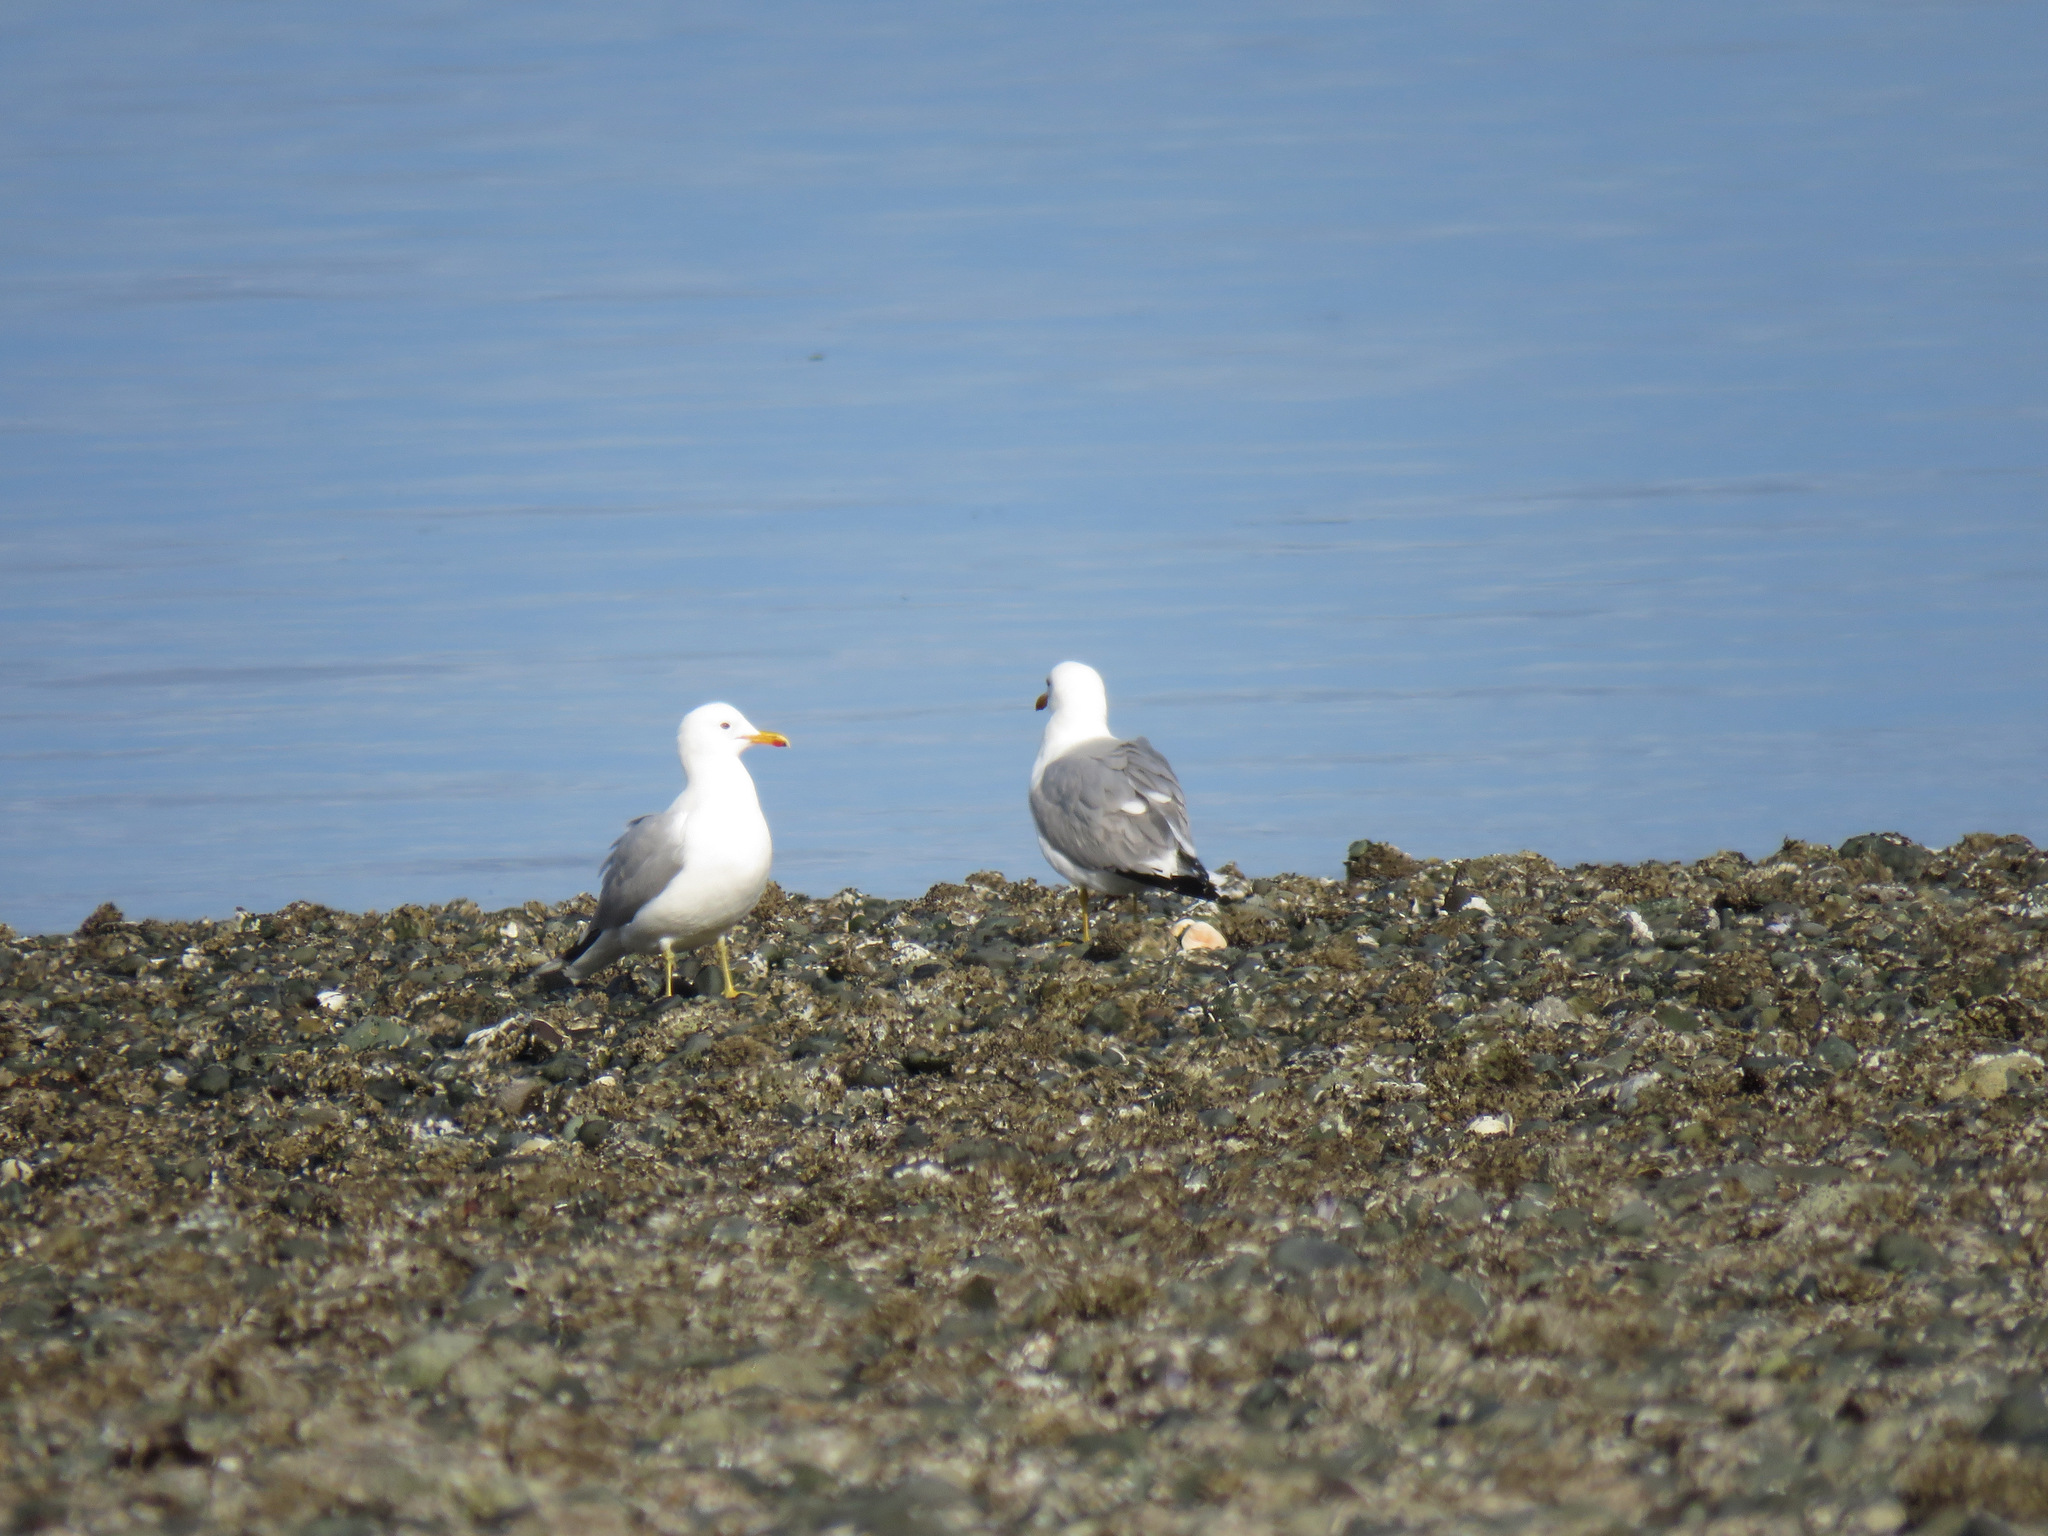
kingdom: Animalia
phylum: Chordata
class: Aves
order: Charadriiformes
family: Laridae
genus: Larus
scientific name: Larus californicus
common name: California gull
